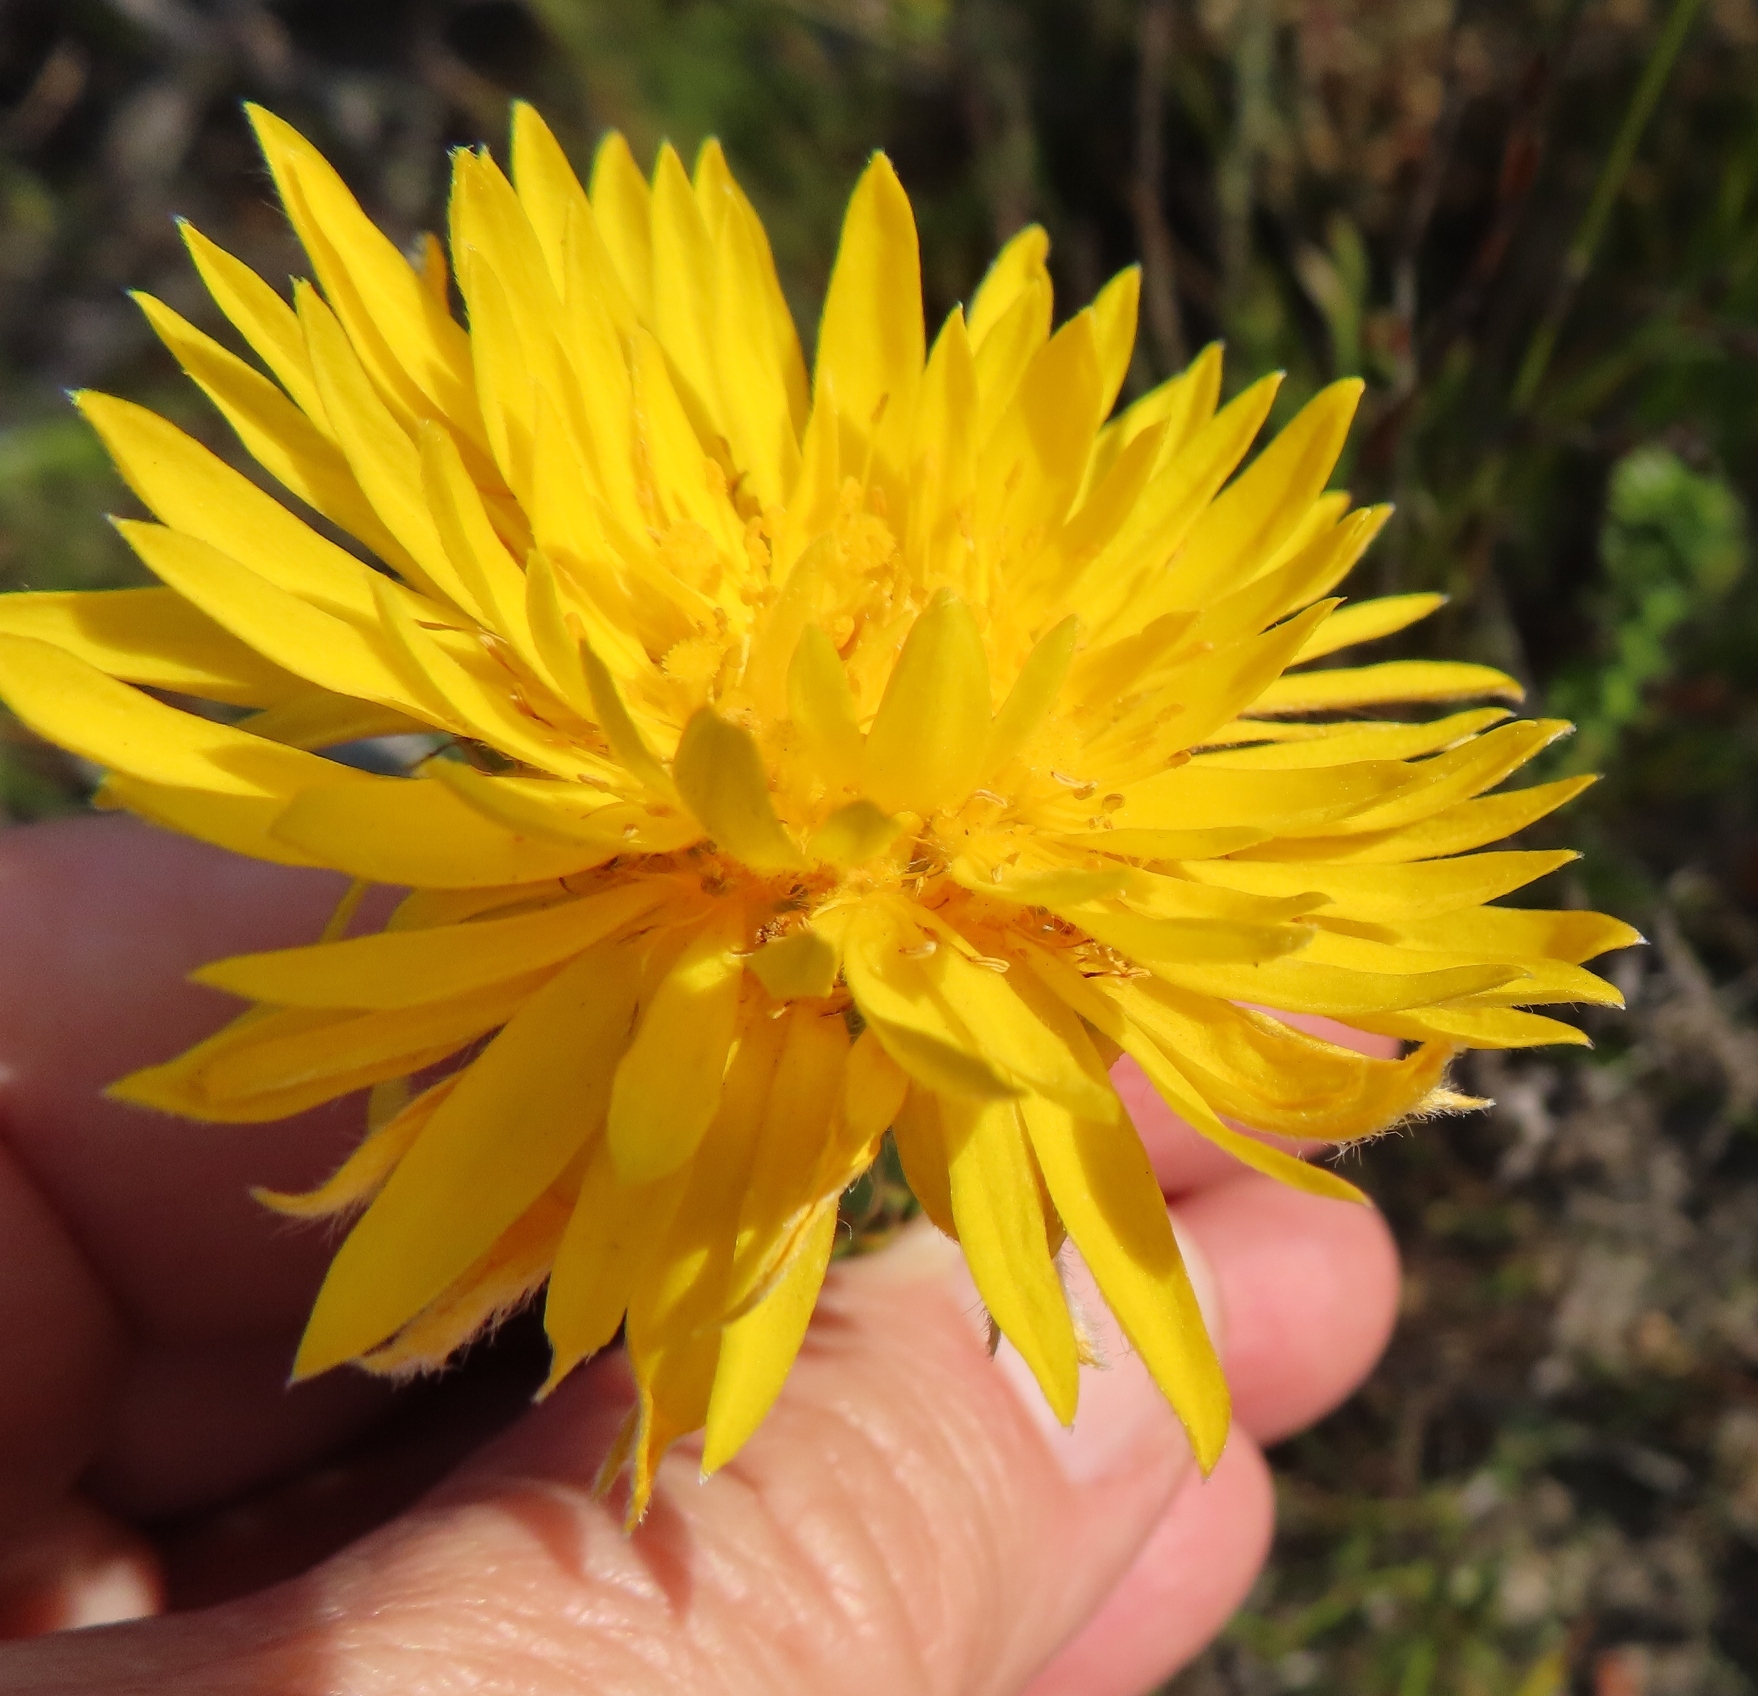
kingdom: Plantae
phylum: Tracheophyta
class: Magnoliopsida
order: Malvales
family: Thymelaeaceae
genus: Lachnaea
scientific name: Lachnaea aurea
